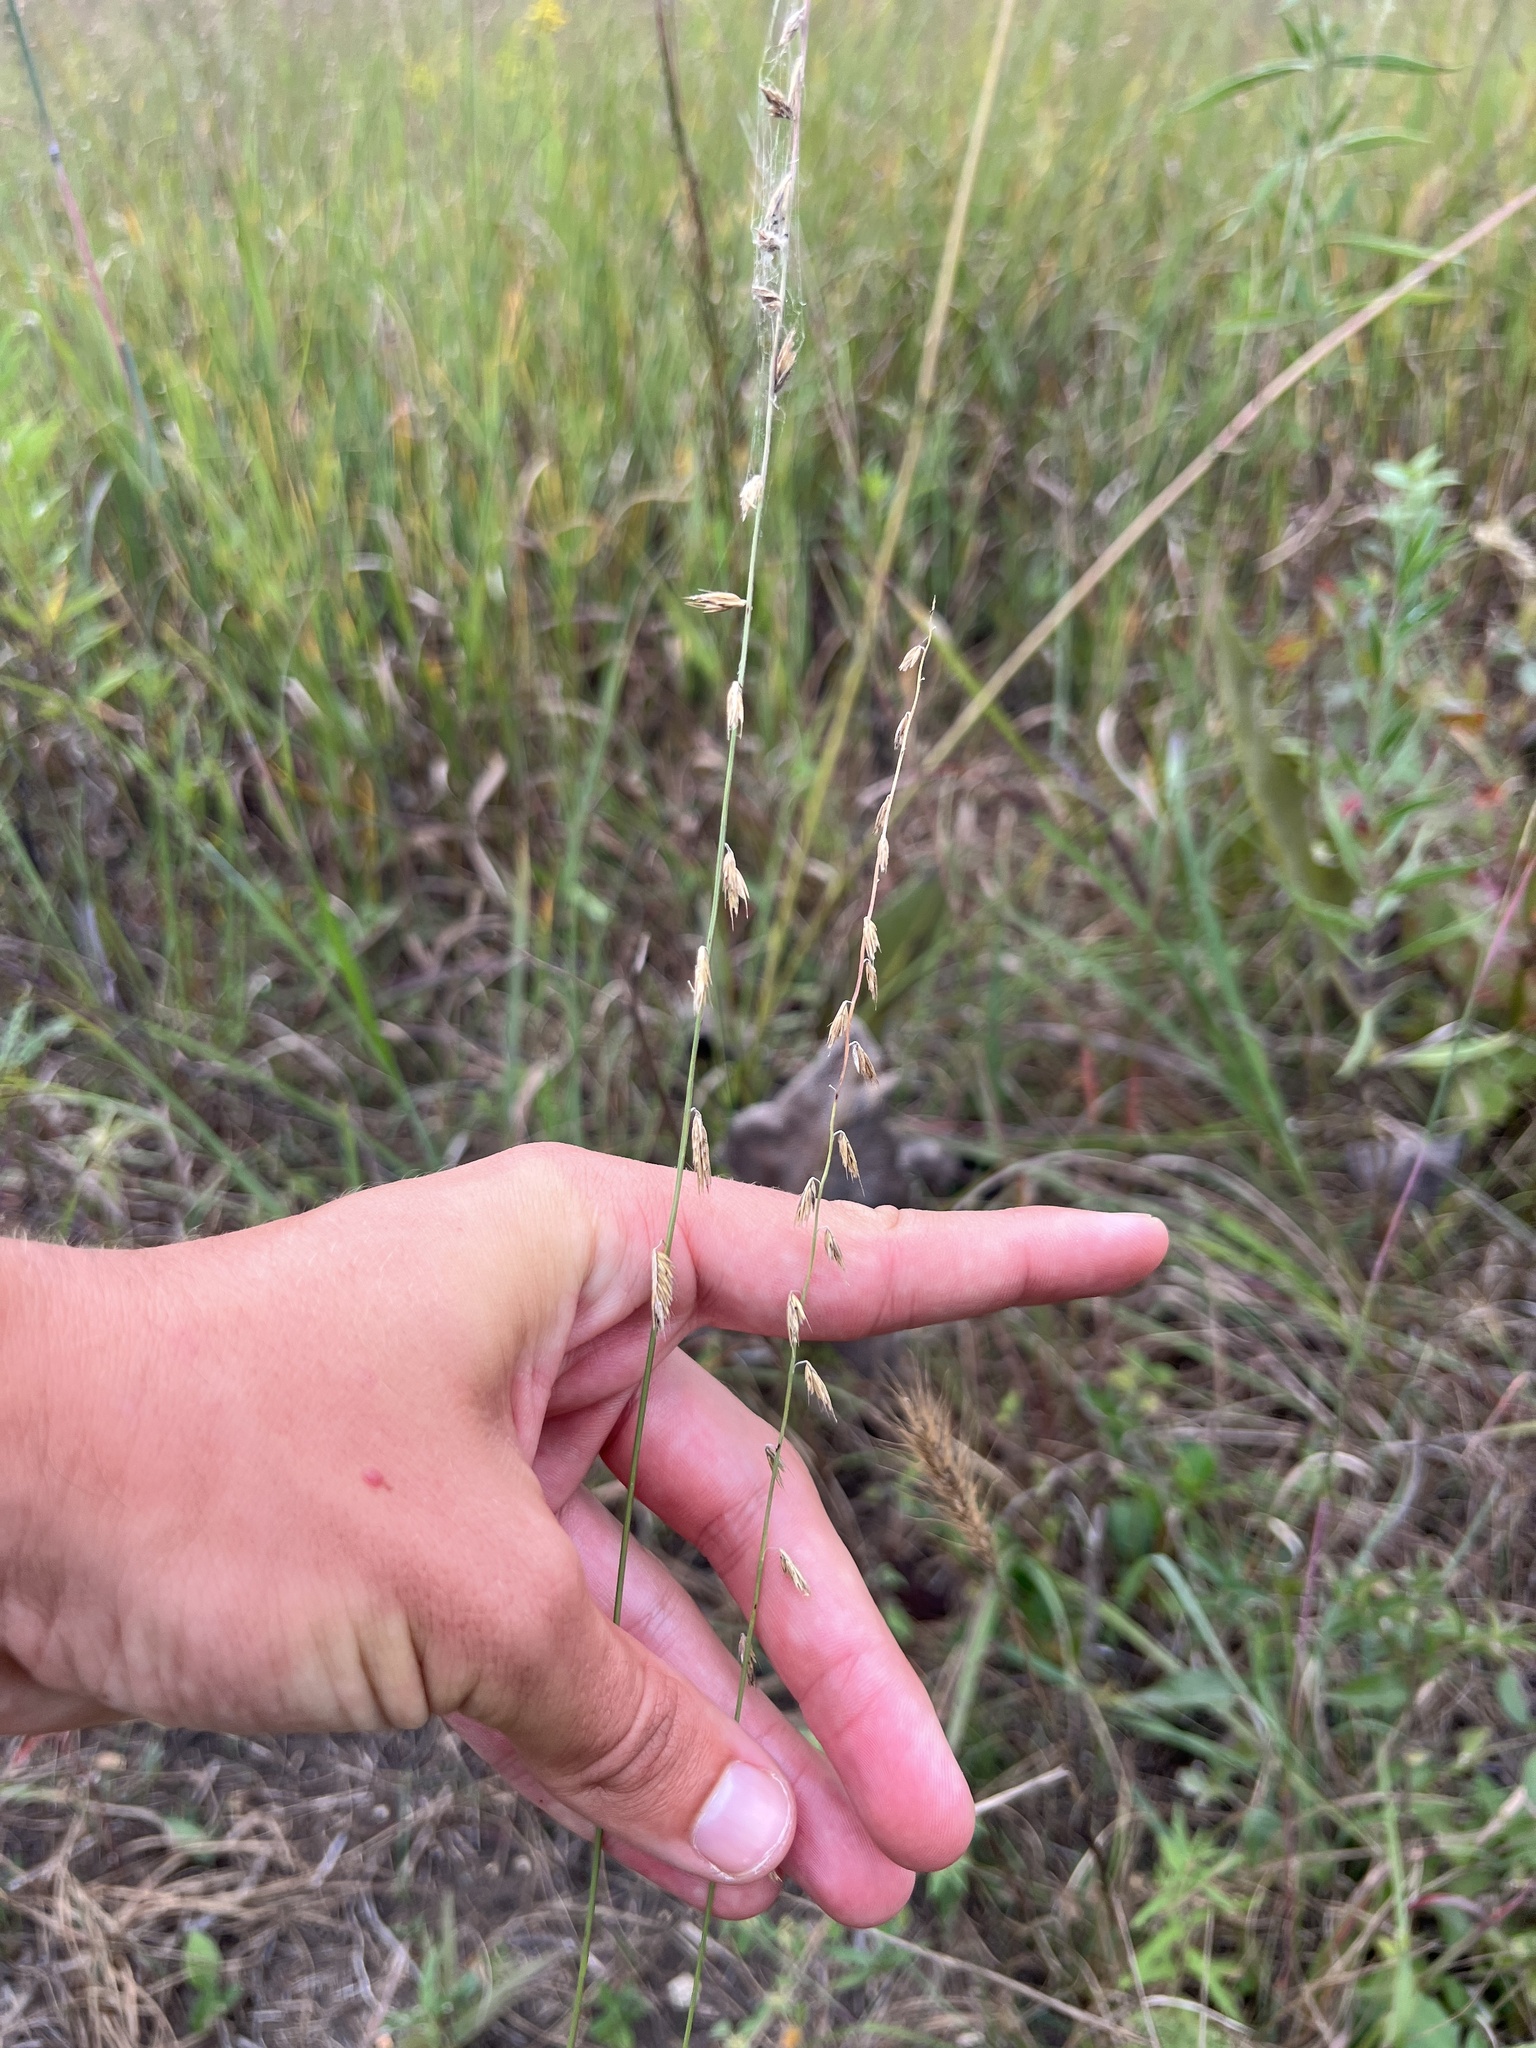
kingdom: Plantae
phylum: Tracheophyta
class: Liliopsida
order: Poales
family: Poaceae
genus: Bouteloua
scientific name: Bouteloua curtipendula
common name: Side-oats grama
